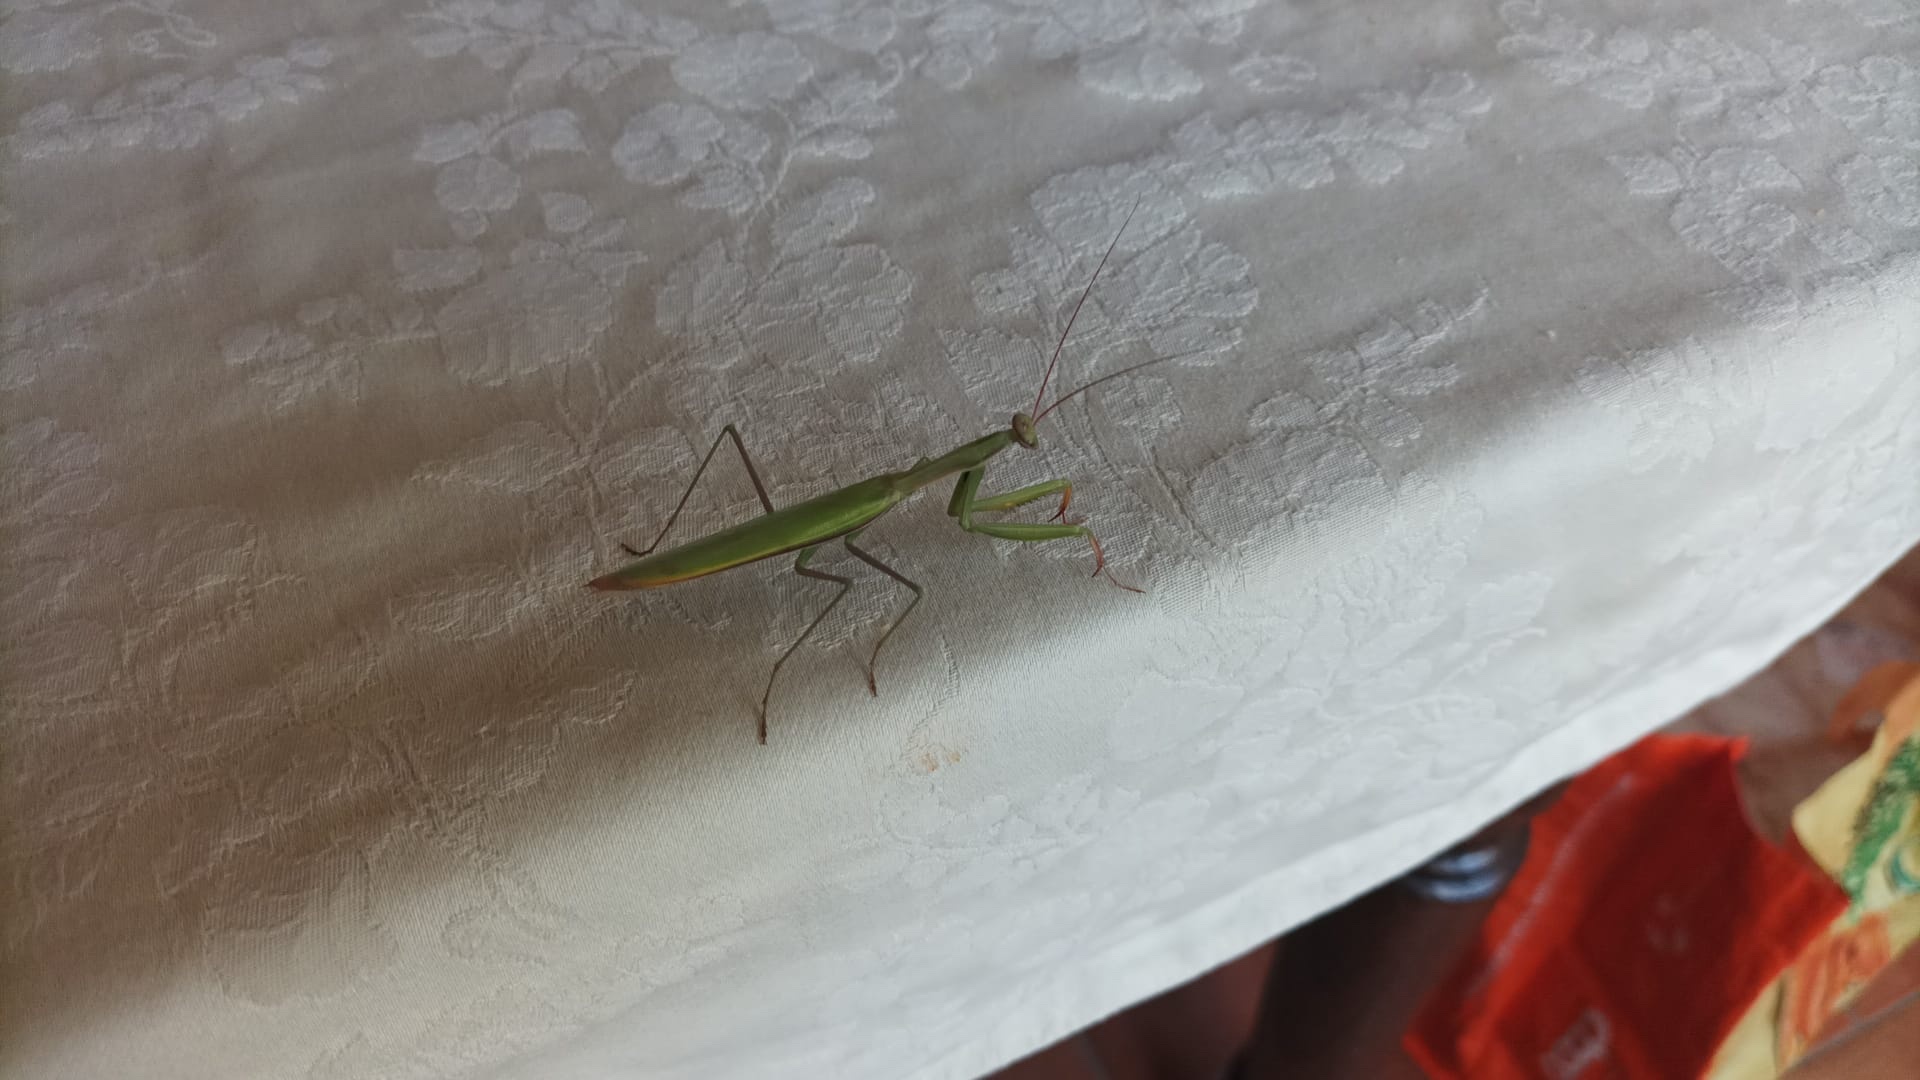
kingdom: Animalia
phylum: Arthropoda
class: Insecta
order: Mantodea
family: Mantidae
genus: Mantis
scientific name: Mantis religiosa
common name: Praying mantis
